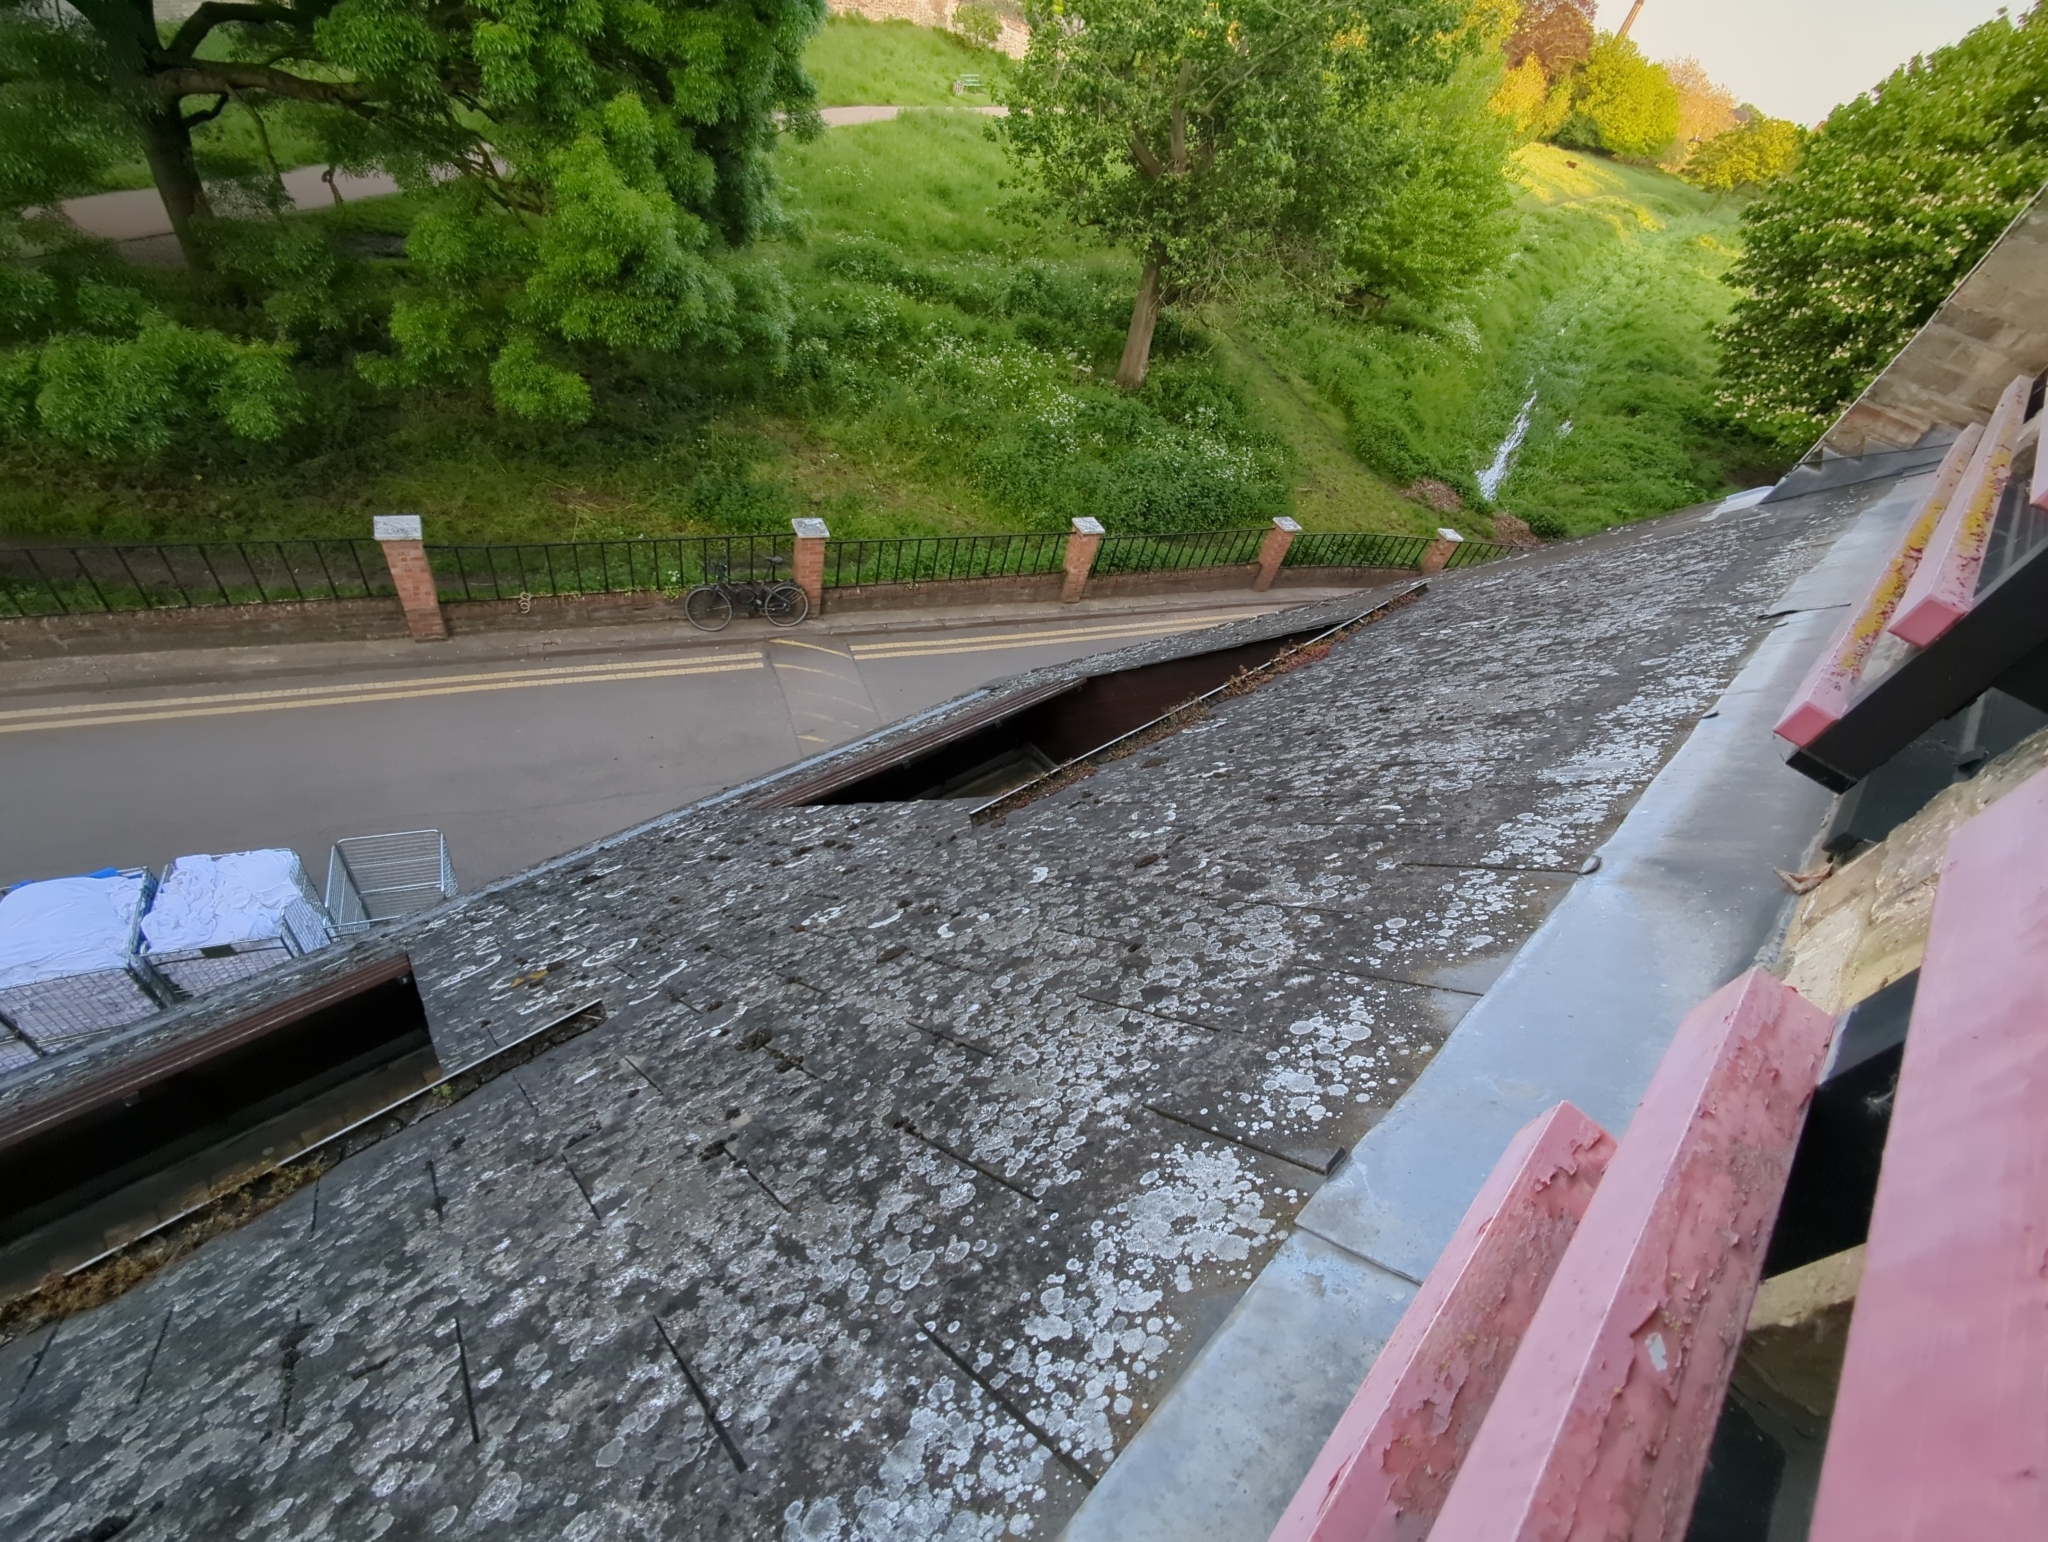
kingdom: Fungi
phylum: Ascomycota
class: Lecanoromycetes
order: Teloschistales
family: Teloschistaceae
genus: Kuettlingeria
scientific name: Kuettlingeria teicholyta
